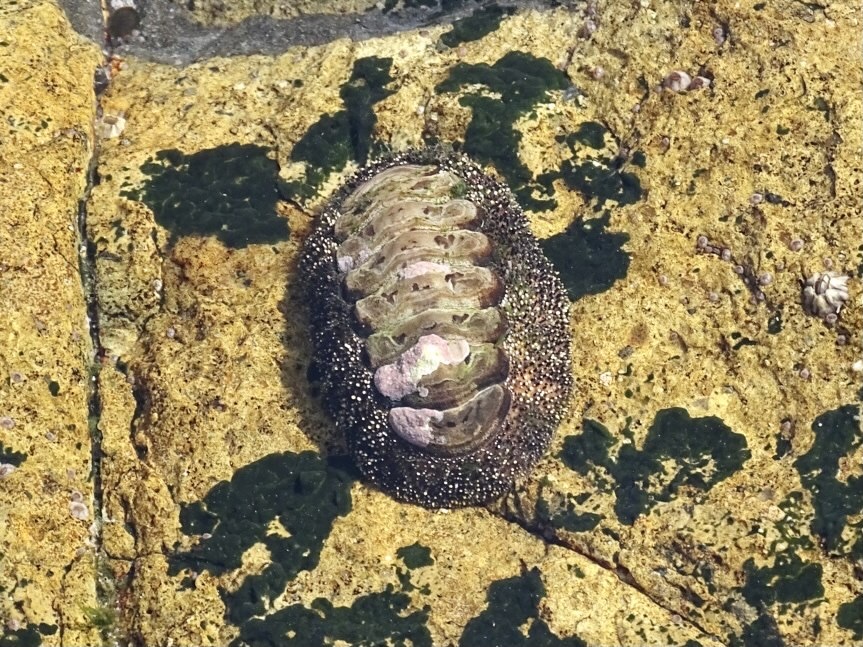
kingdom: Animalia
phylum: Mollusca
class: Polyplacophora
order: Chitonida
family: Chitonidae
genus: Liolophura
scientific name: Liolophura japonica
